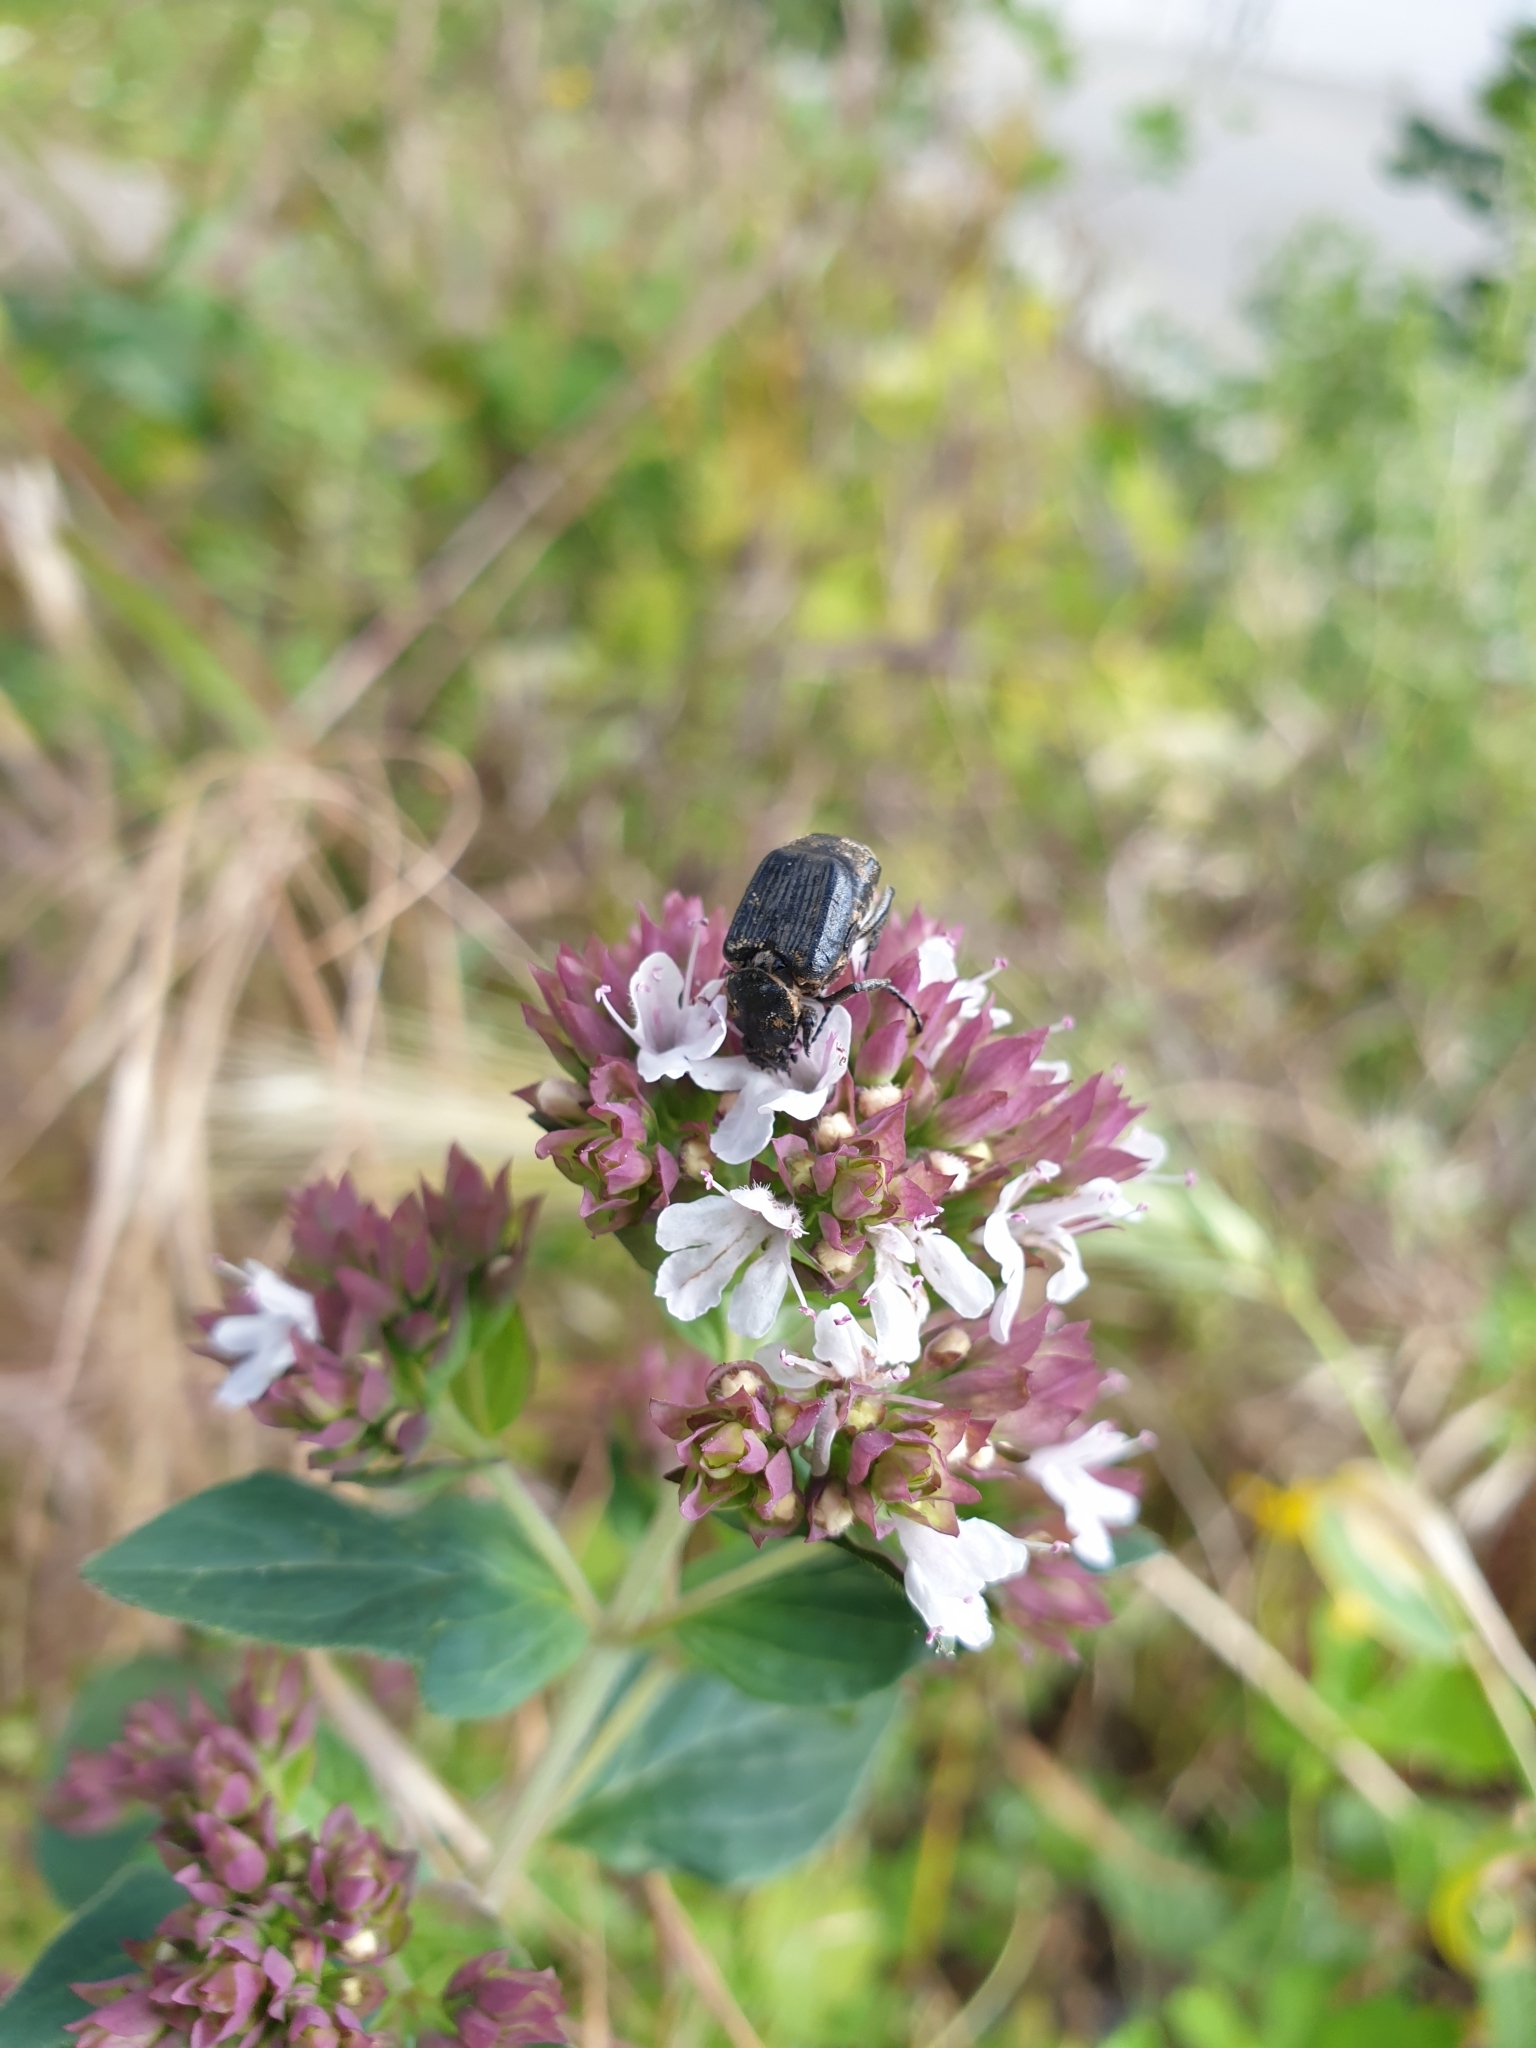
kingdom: Animalia
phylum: Arthropoda
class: Insecta
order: Coleoptera
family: Scarabaeidae
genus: Valgus
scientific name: Valgus hemipterus
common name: Bug flower chafer
